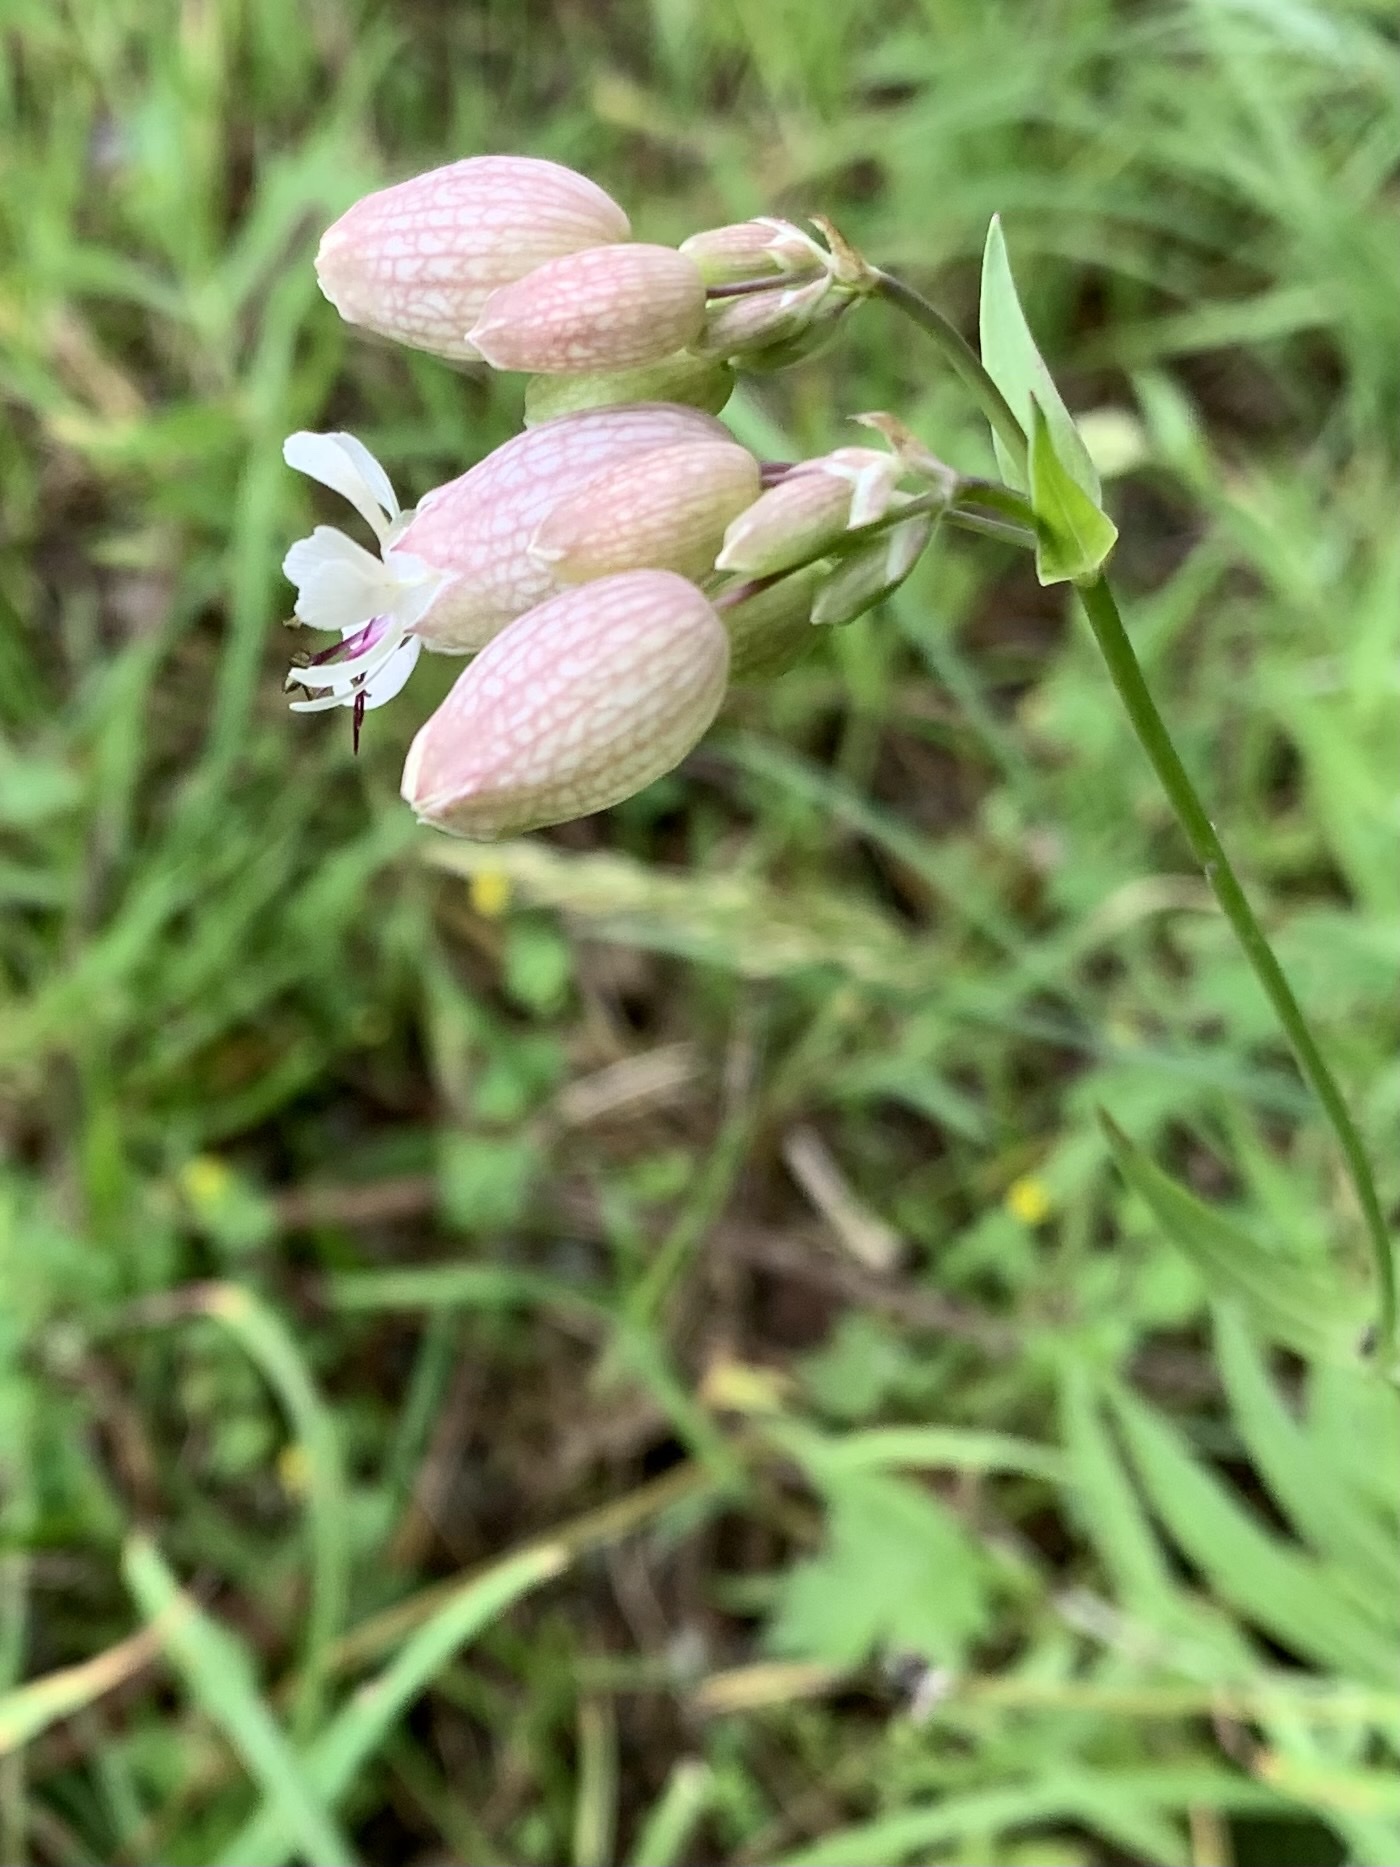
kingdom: Plantae
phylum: Tracheophyta
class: Magnoliopsida
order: Caryophyllales
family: Caryophyllaceae
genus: Silene
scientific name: Silene vulgaris
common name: Bladder campion
